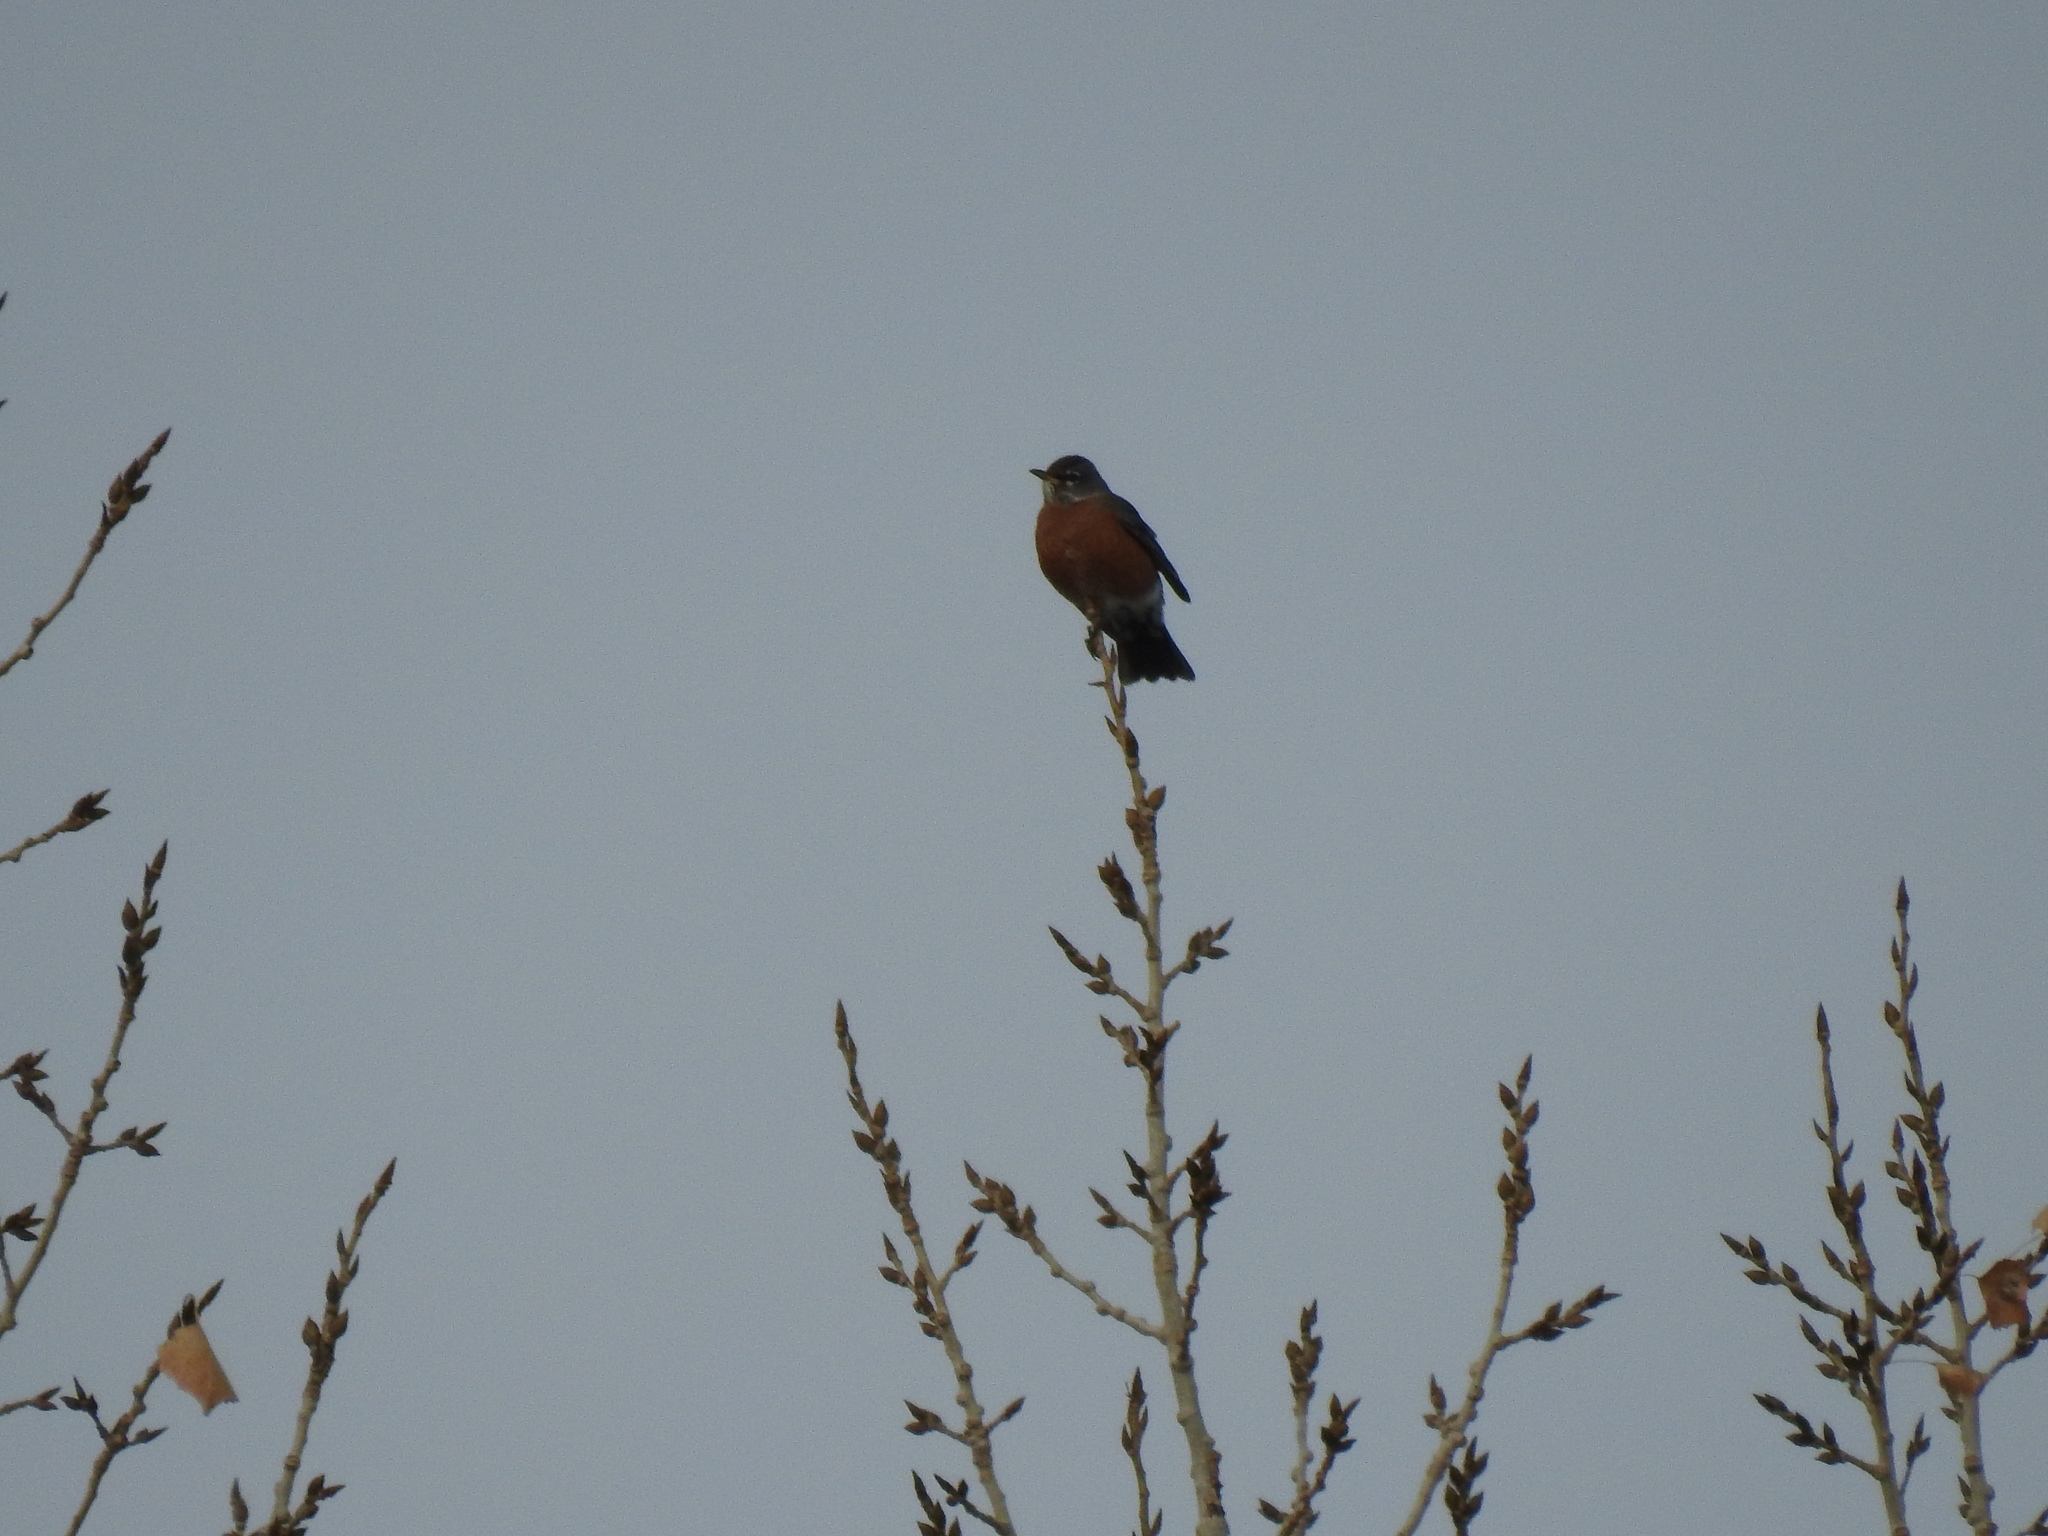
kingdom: Animalia
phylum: Chordata
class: Aves
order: Passeriformes
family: Turdidae
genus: Turdus
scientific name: Turdus migratorius
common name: American robin
